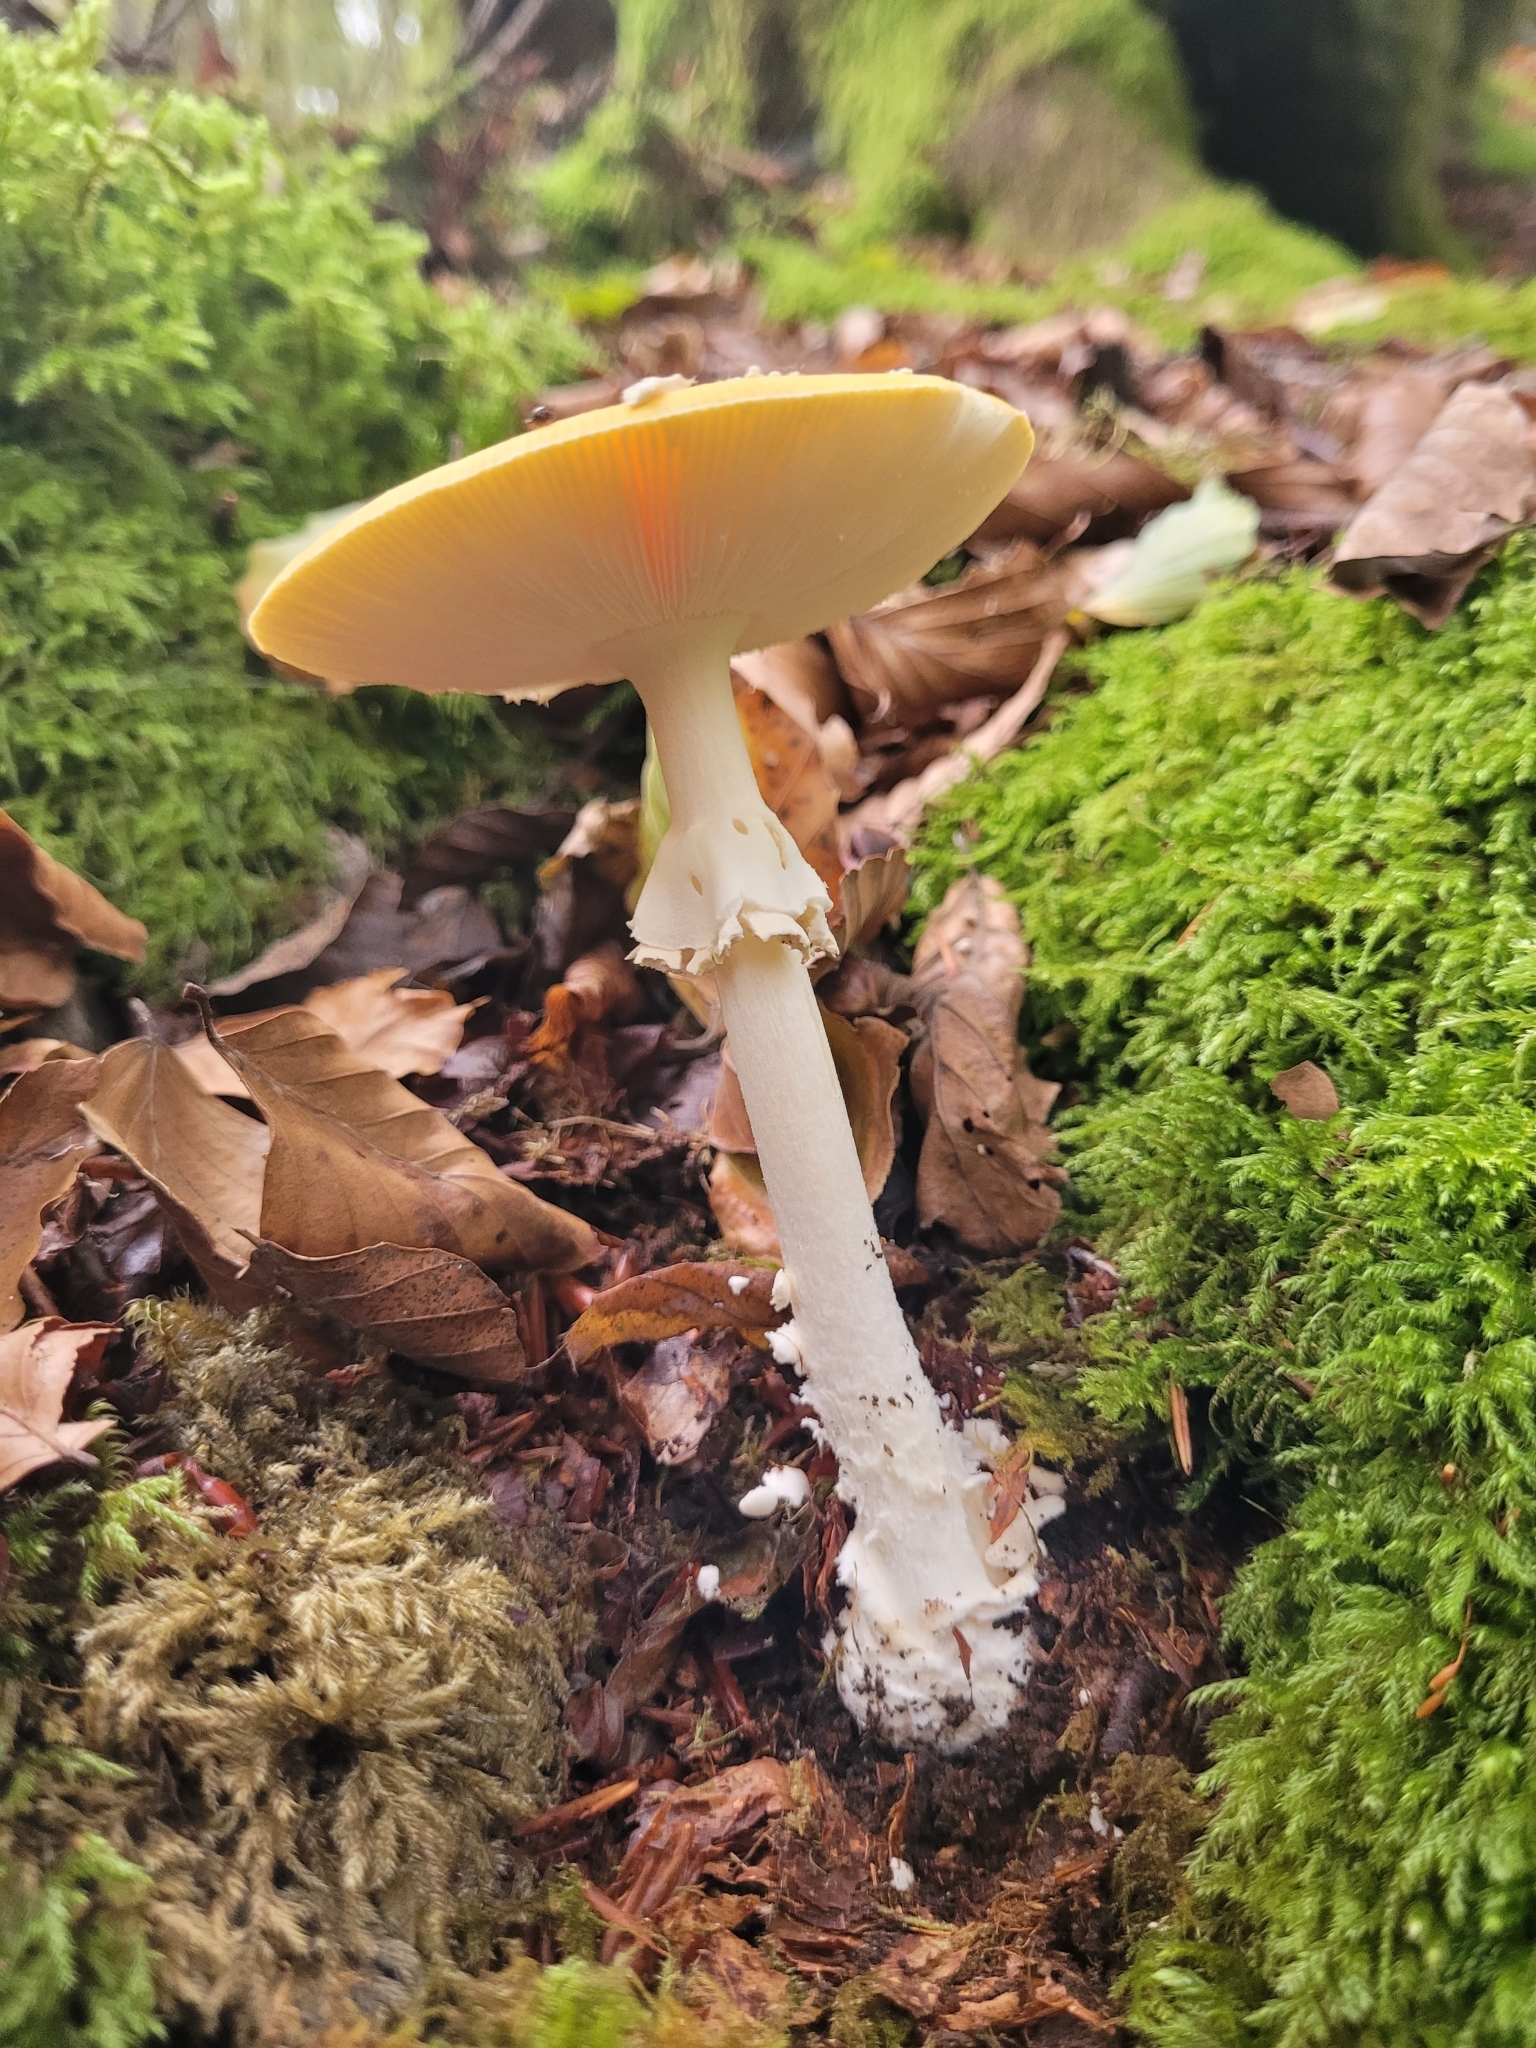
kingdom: Fungi
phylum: Basidiomycota
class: Agaricomycetes
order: Agaricales
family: Amanitaceae
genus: Amanita
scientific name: Amanita muscaria
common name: Fly agaric
